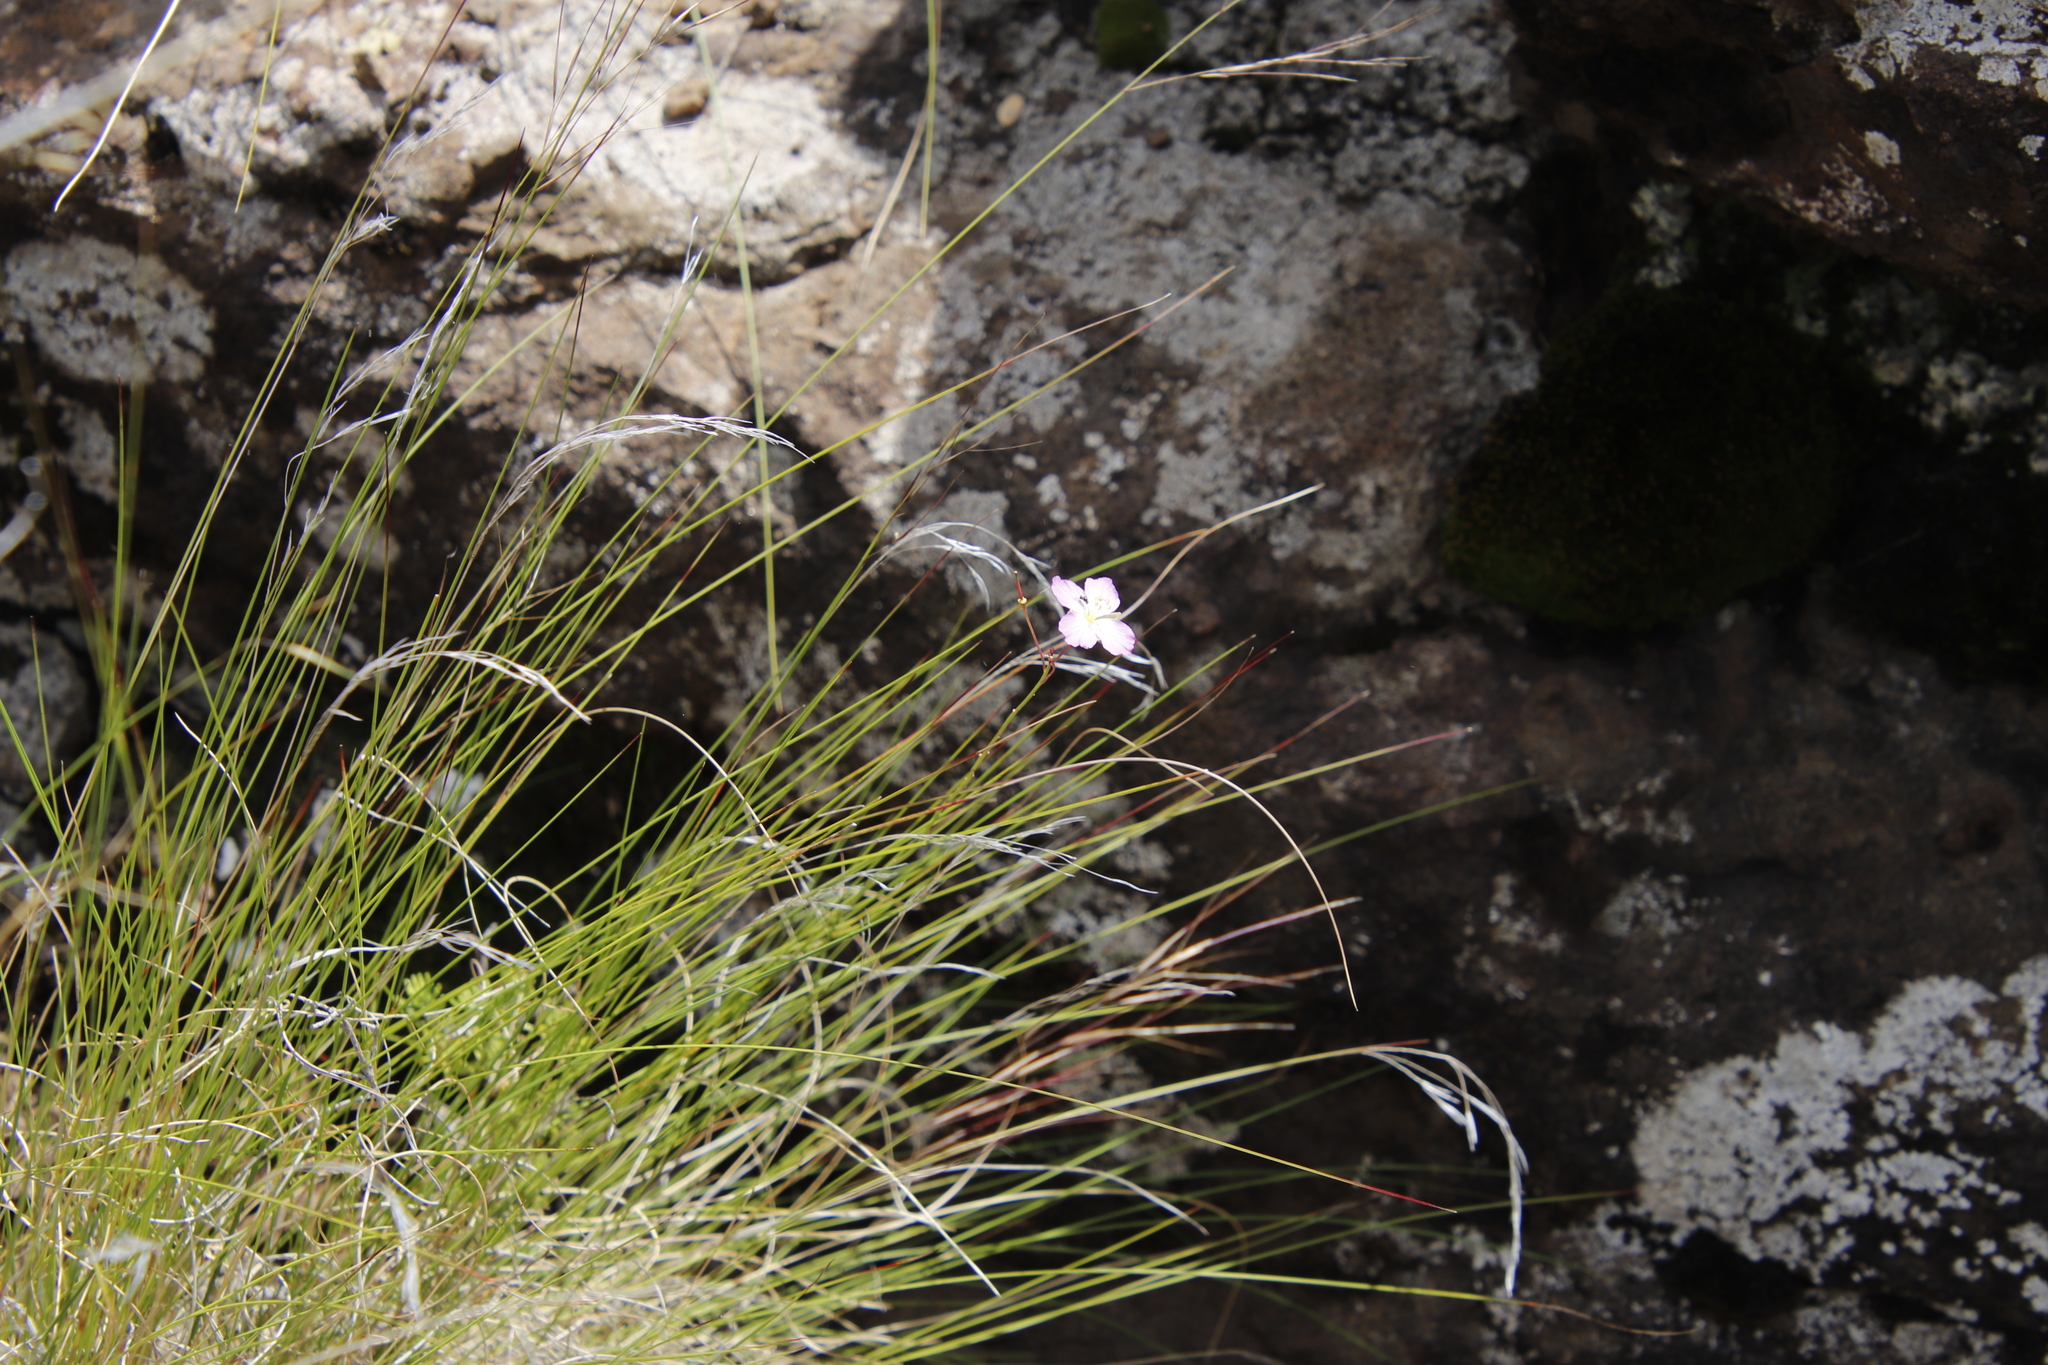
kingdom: Plantae
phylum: Tracheophyta
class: Magnoliopsida
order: Brassicales
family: Brassicaceae
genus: Heliophila
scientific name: Heliophila carnosa
